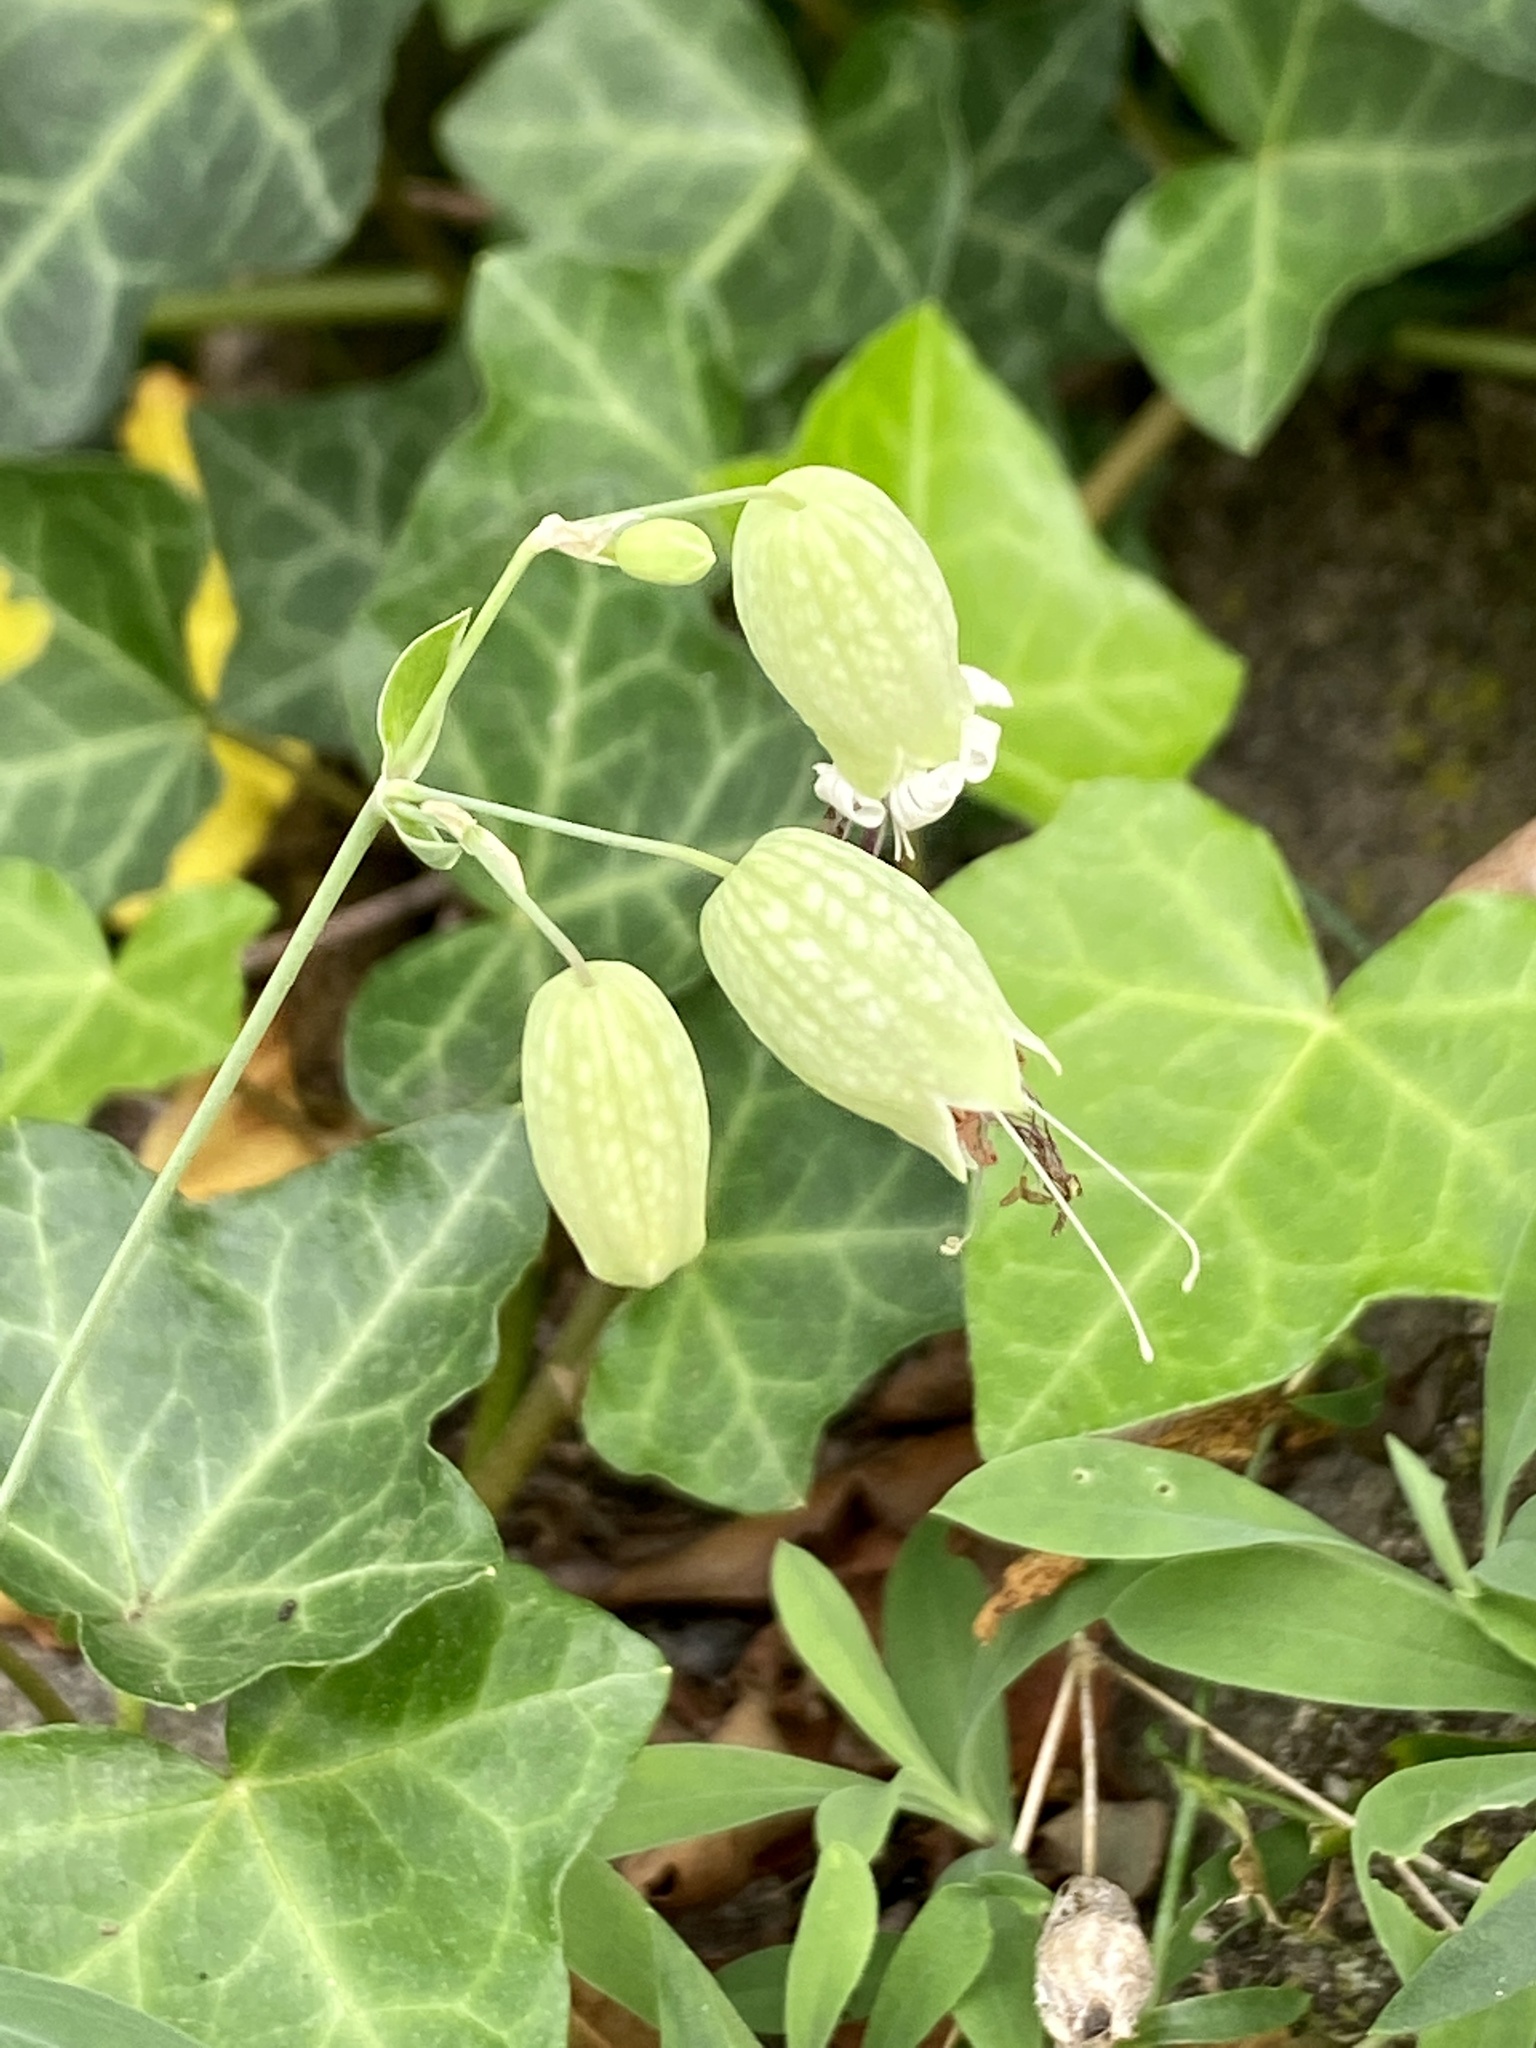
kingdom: Plantae
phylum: Tracheophyta
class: Magnoliopsida
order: Caryophyllales
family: Caryophyllaceae
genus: Silene
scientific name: Silene vulgaris
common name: Bladder campion
